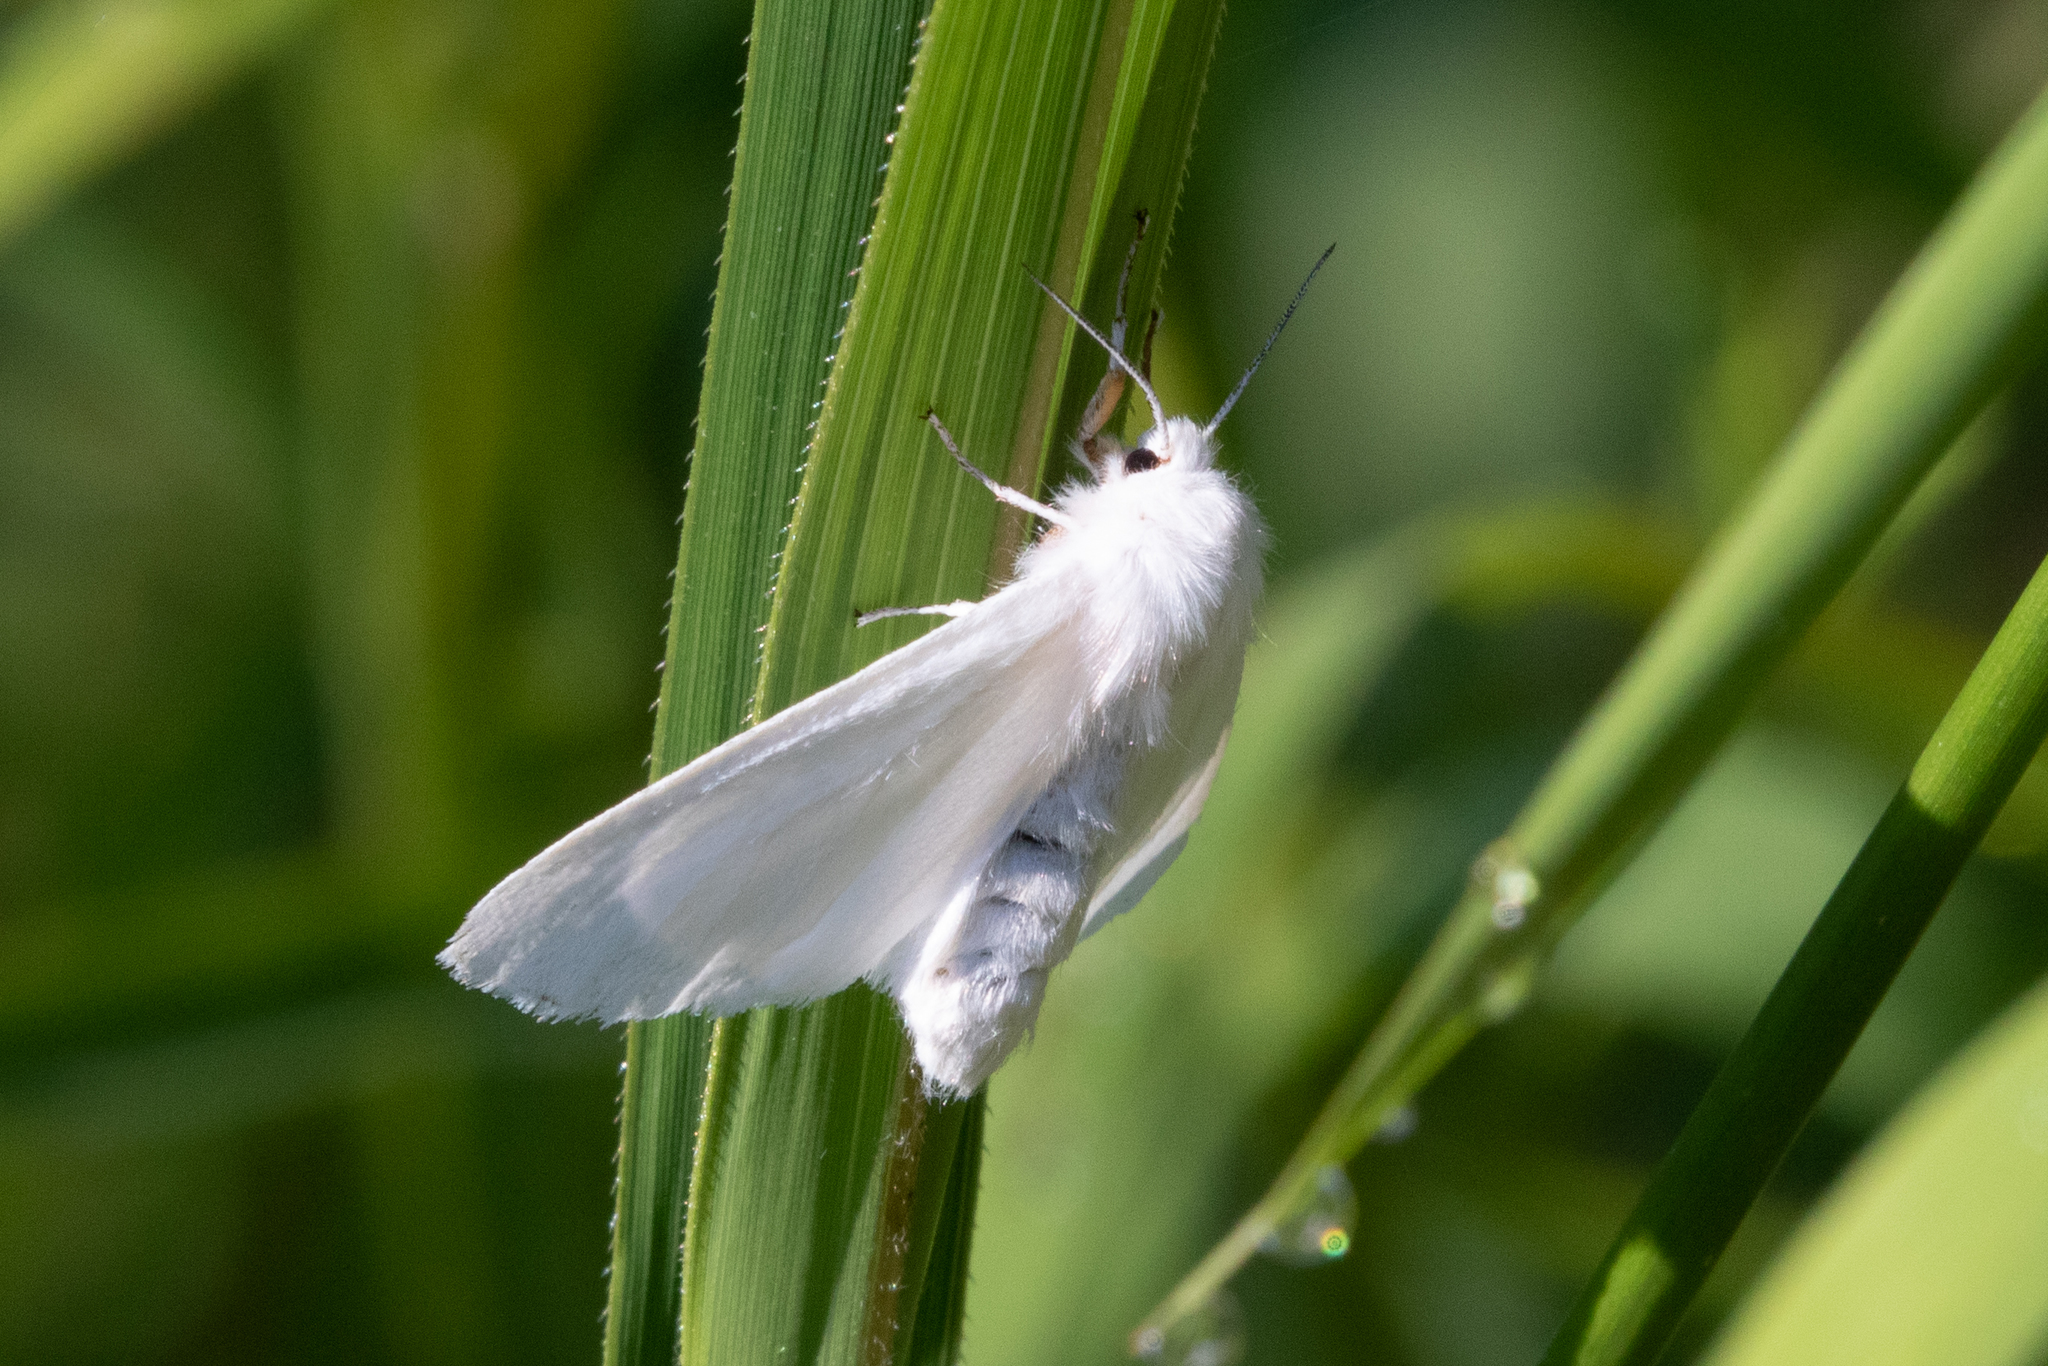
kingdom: Animalia
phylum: Arthropoda
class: Insecta
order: Lepidoptera
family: Erebidae
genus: Spilosoma
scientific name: Spilosoma congrua
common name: Agreeable tiger moth
